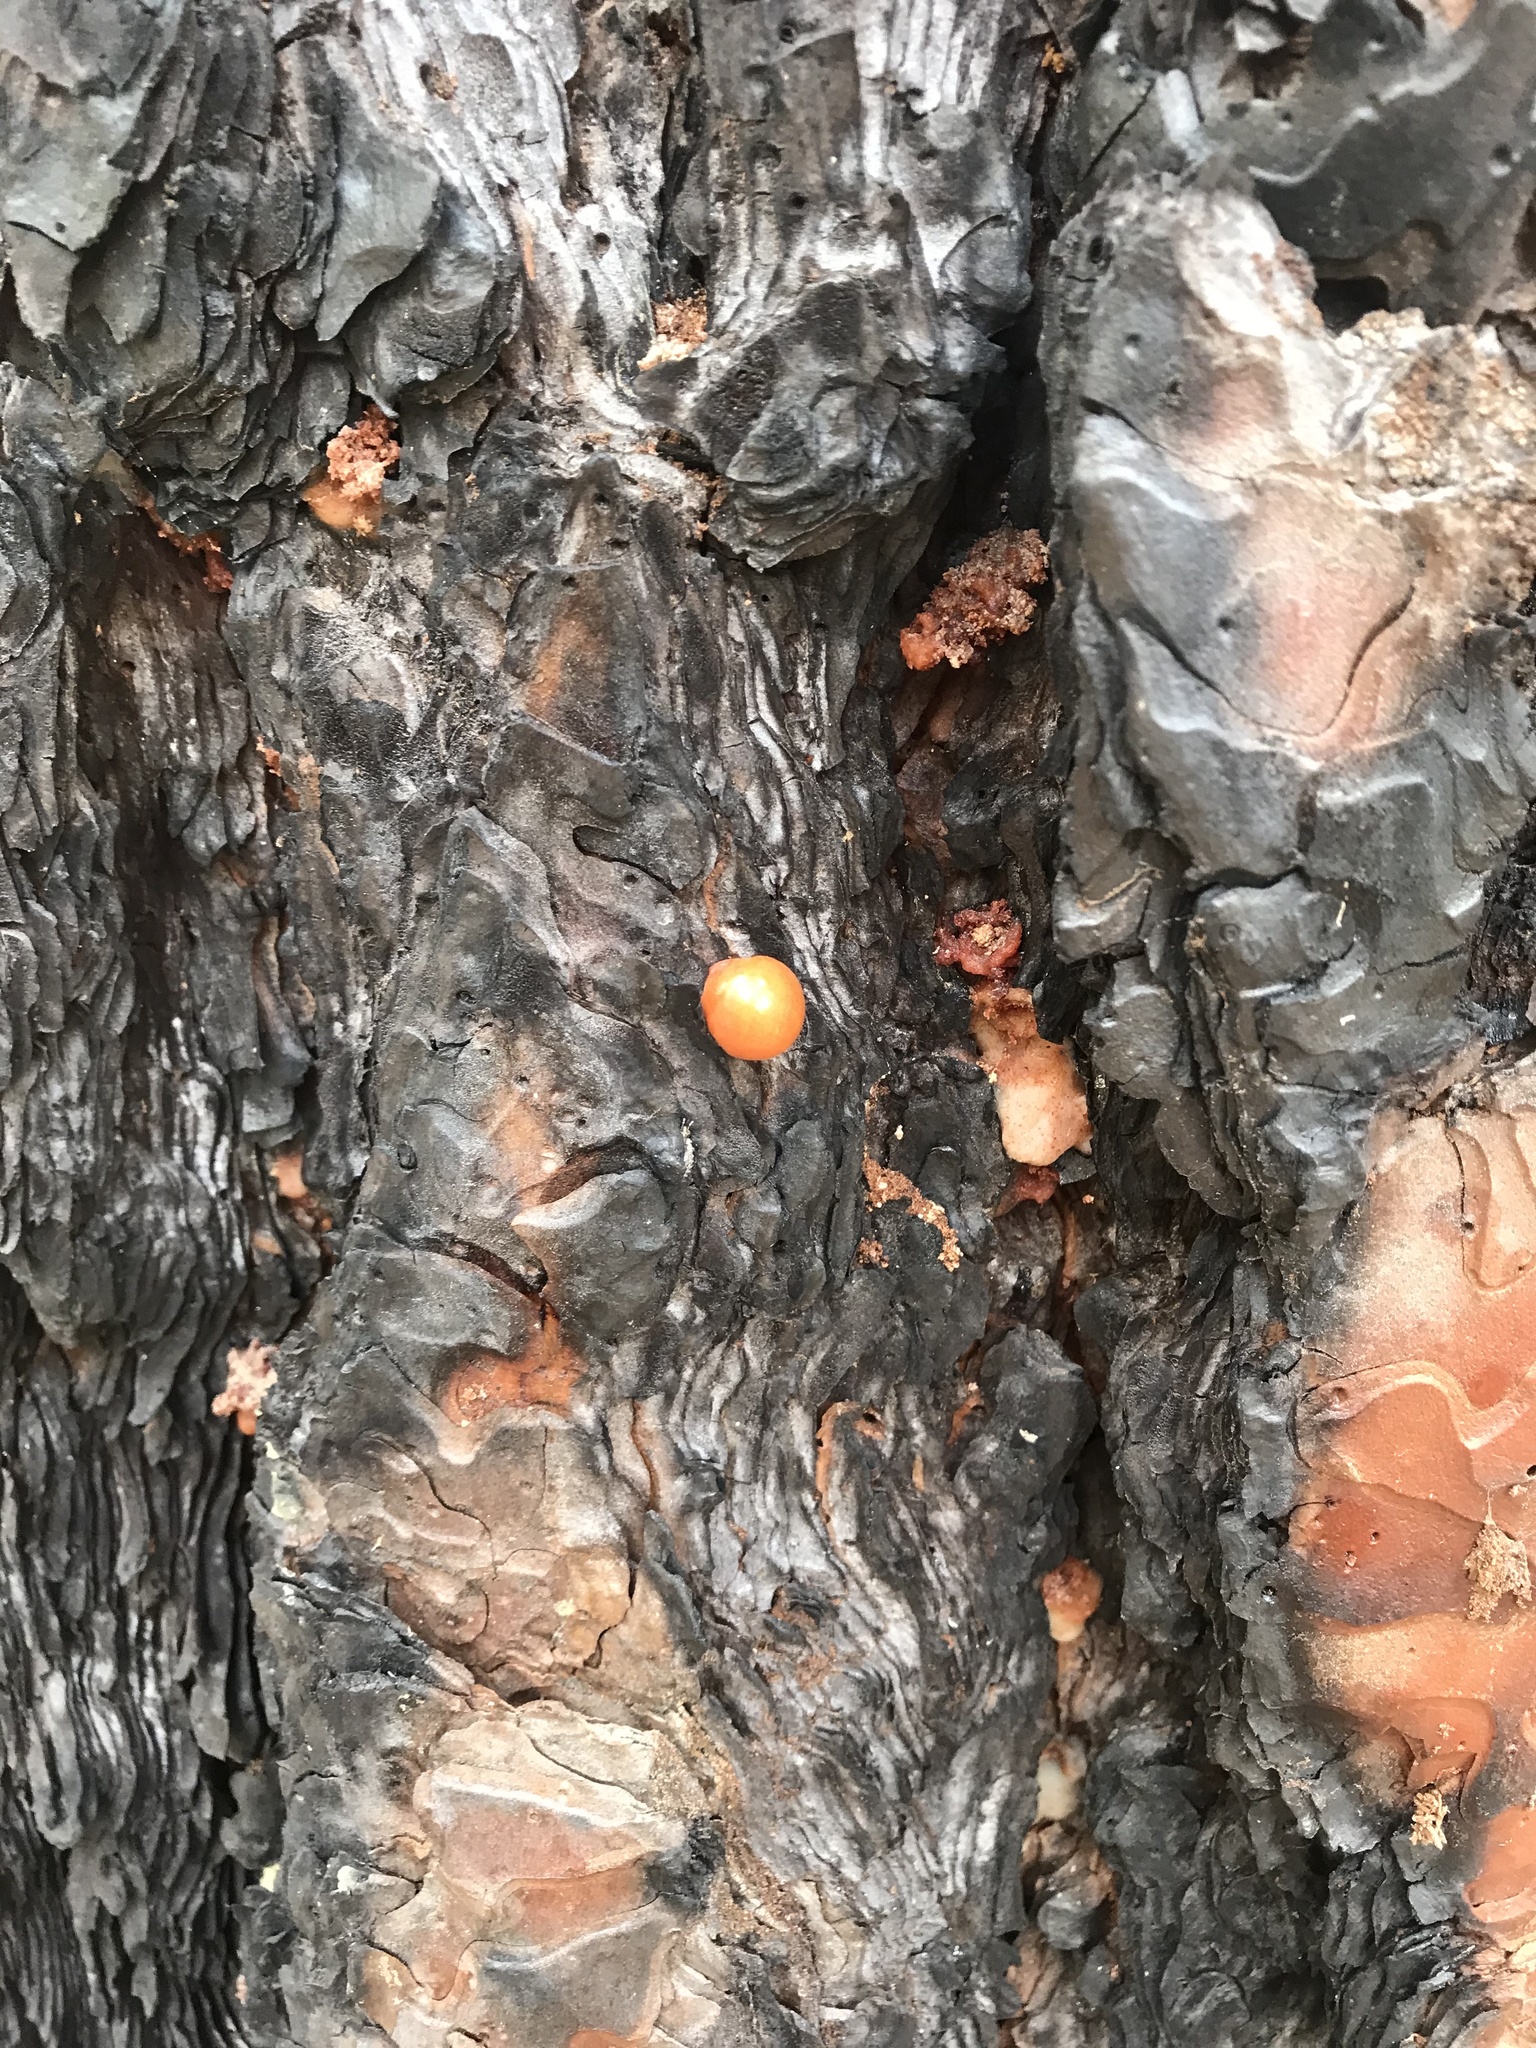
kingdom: Fungi
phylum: Basidiomycota
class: Agaricomycetes
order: Polyporales
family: Polyporaceae
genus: Cryptoporus
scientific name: Cryptoporus volvatus
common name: Veiled polypore
